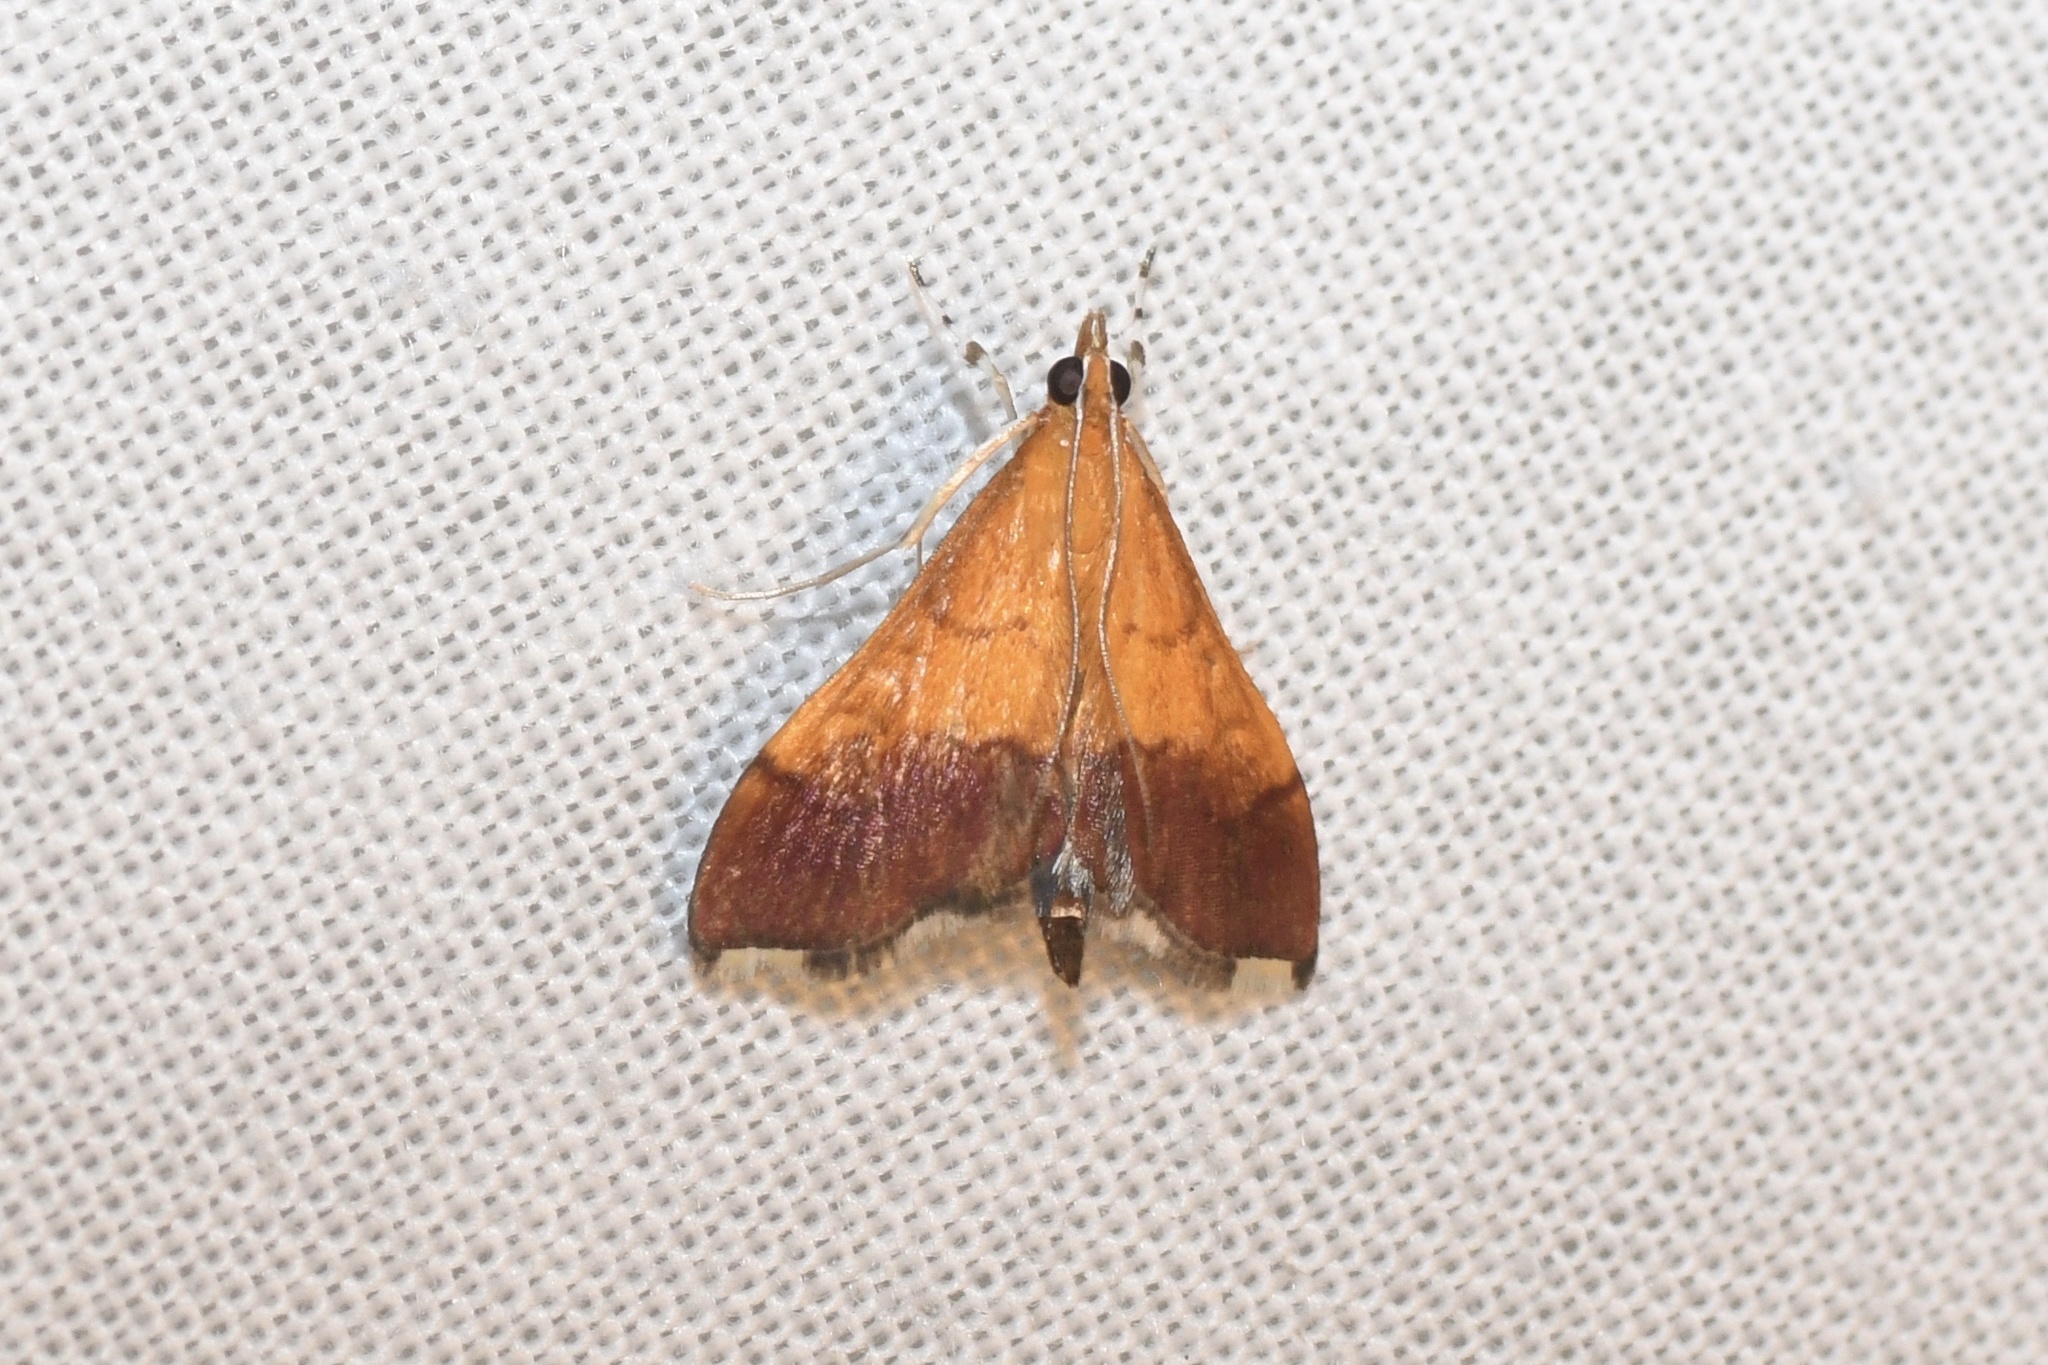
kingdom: Animalia
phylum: Arthropoda
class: Insecta
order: Lepidoptera
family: Crambidae
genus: Pyrausta
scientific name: Pyrausta bicoloralis
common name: Bicolored pyrausta moth
